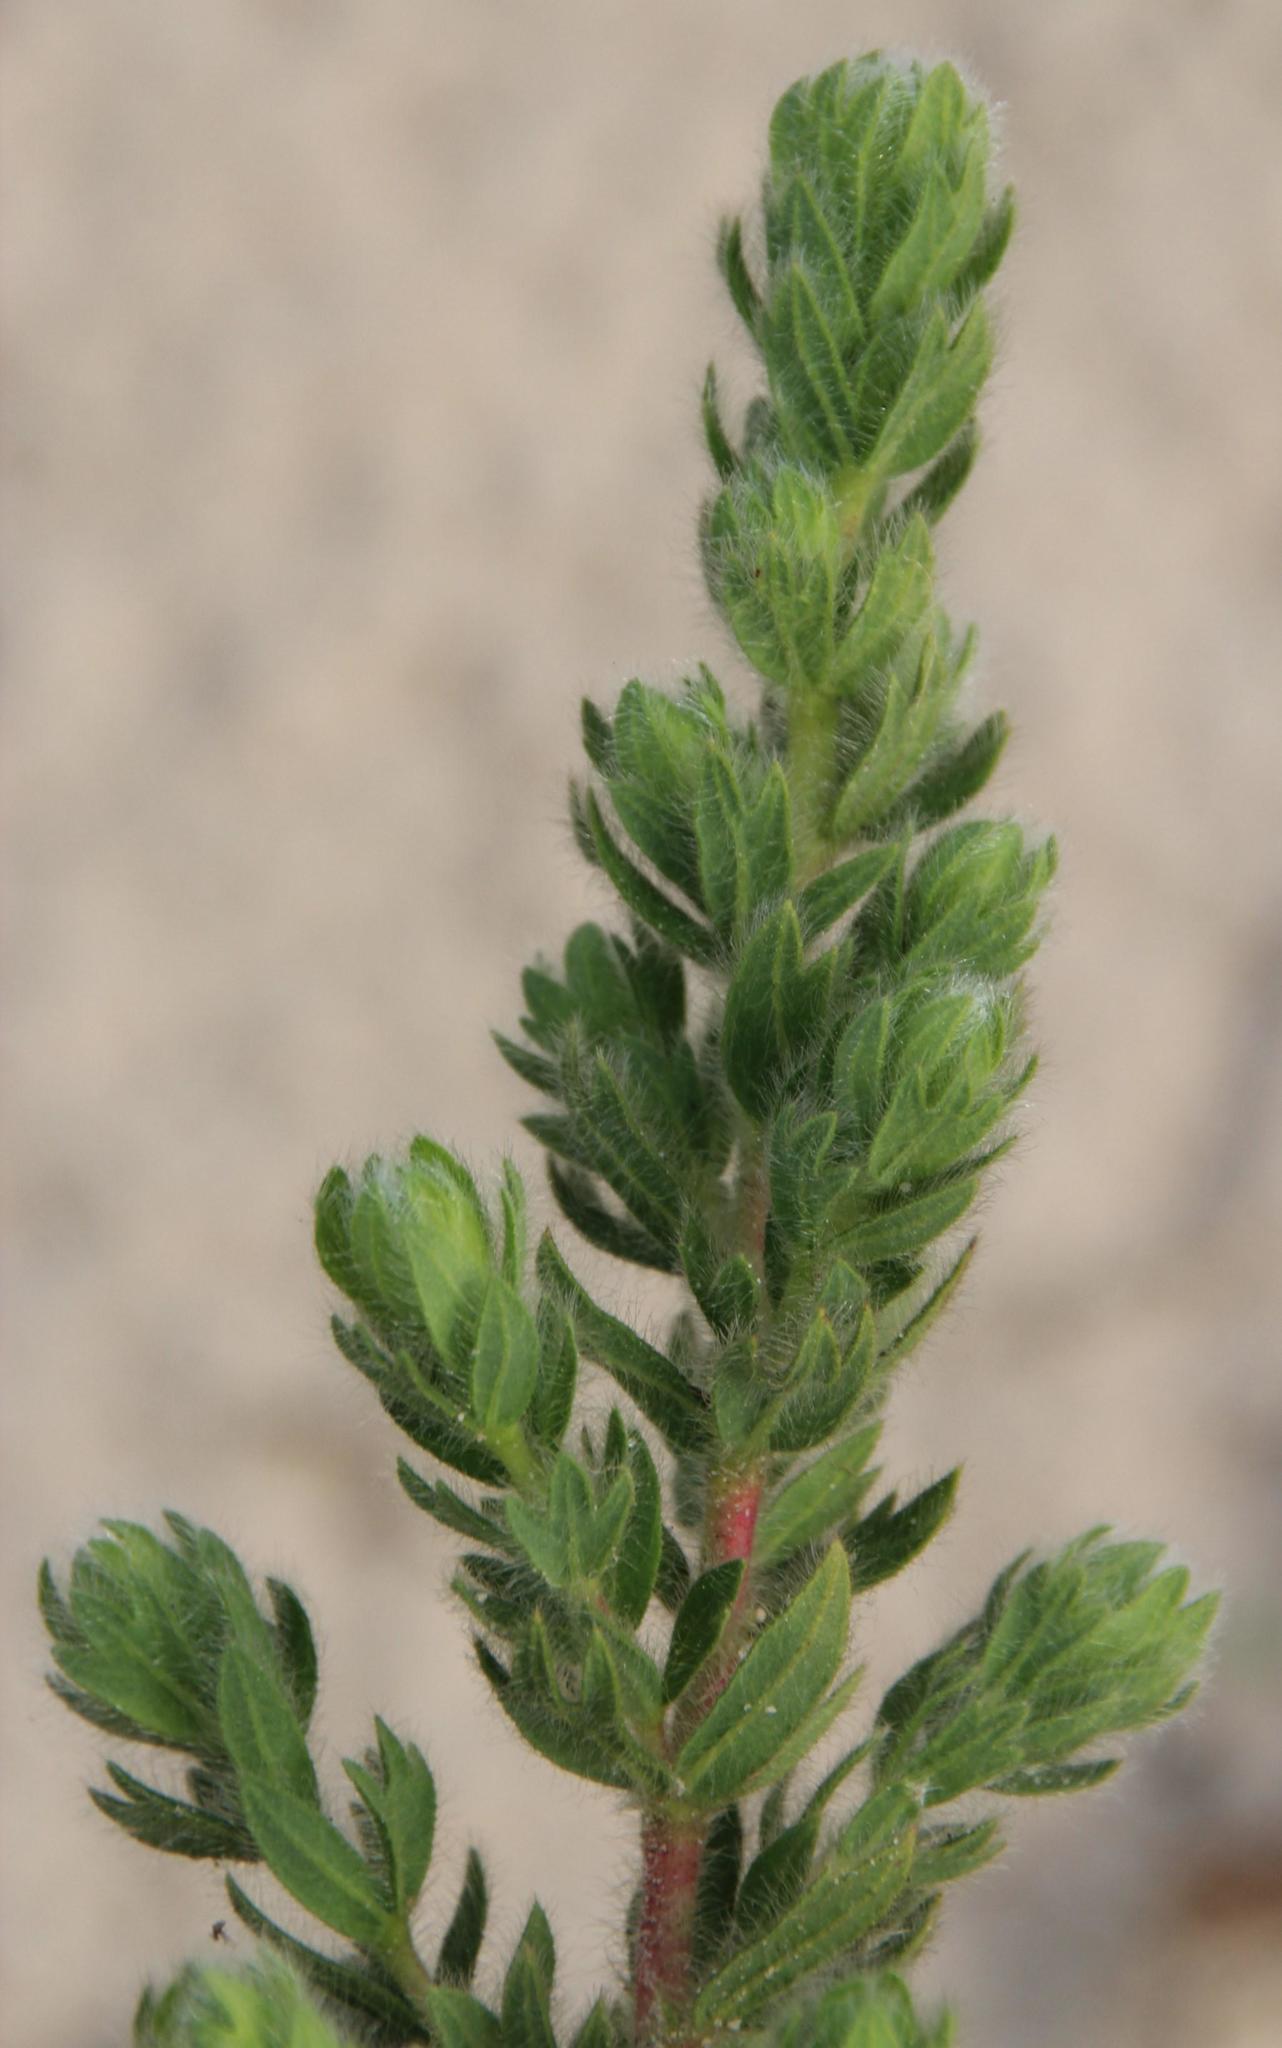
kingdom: Plantae
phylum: Tracheophyta
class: Magnoliopsida
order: Rosales
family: Rosaceae
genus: Cliffortia
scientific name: Cliffortia polygonifolia
